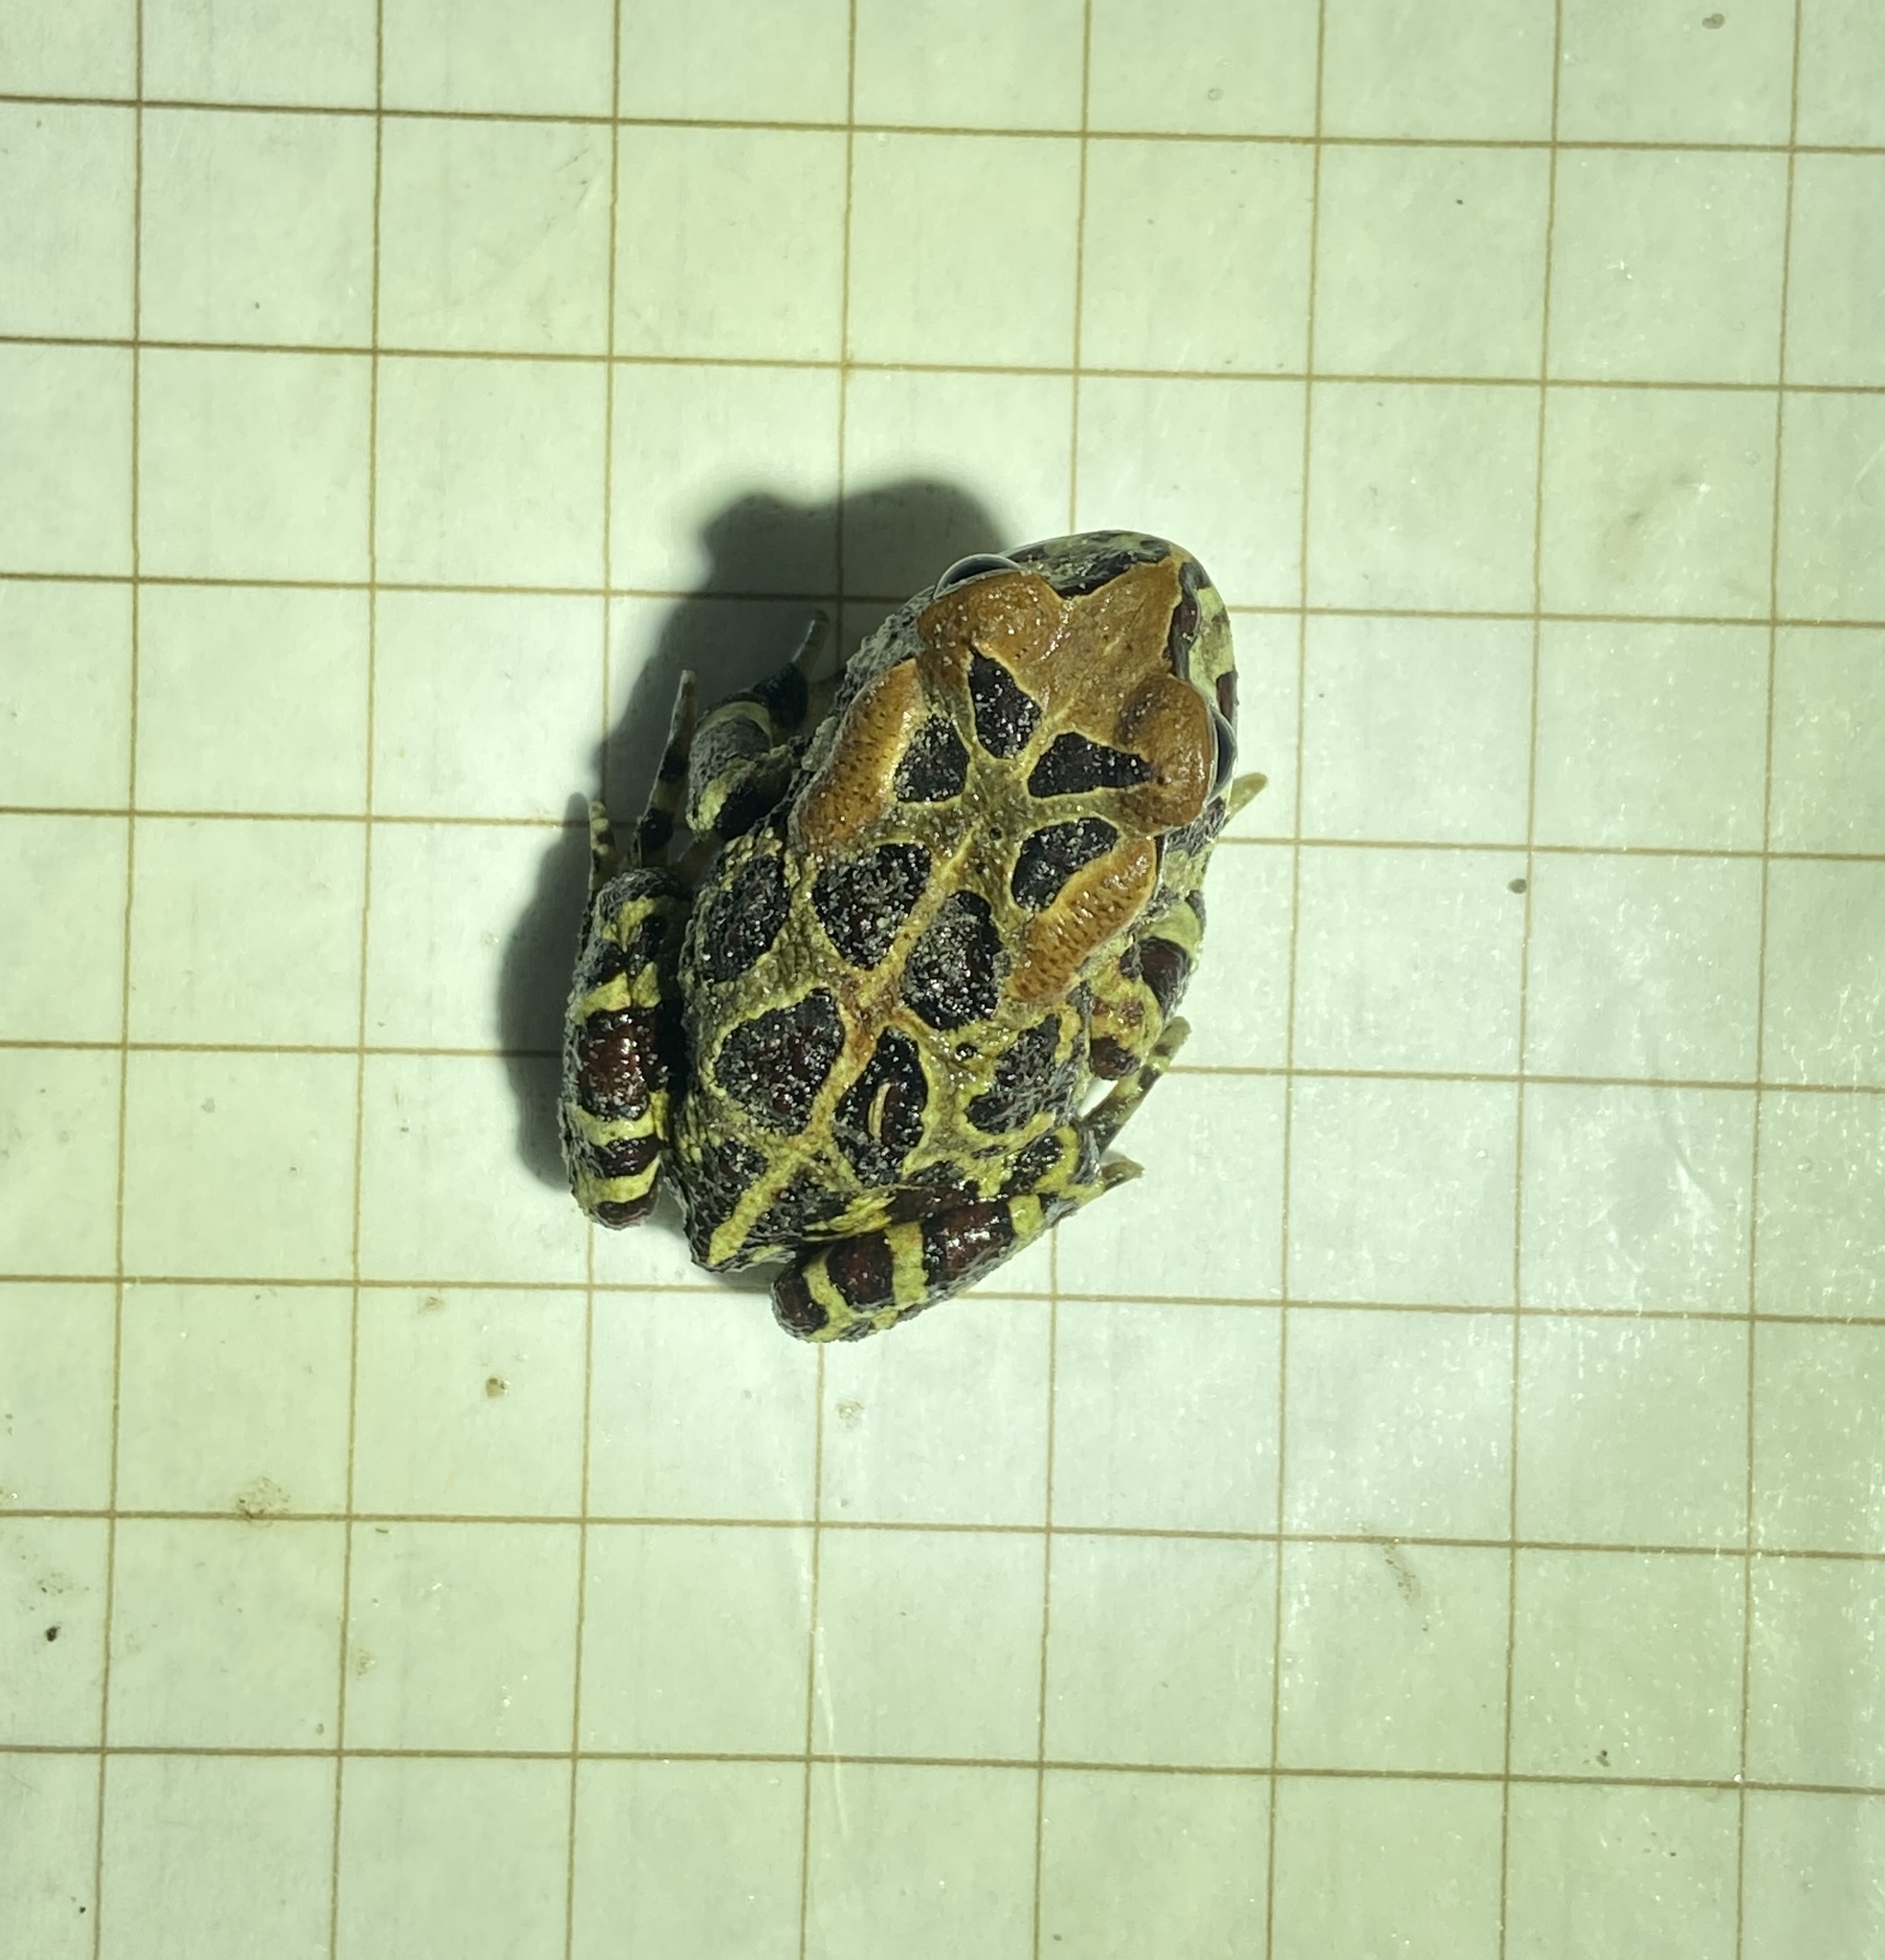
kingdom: Animalia
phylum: Chordata
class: Amphibia
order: Anura
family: Bufonidae
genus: Sclerophrys
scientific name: Sclerophrys pantherina
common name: Panther toad
